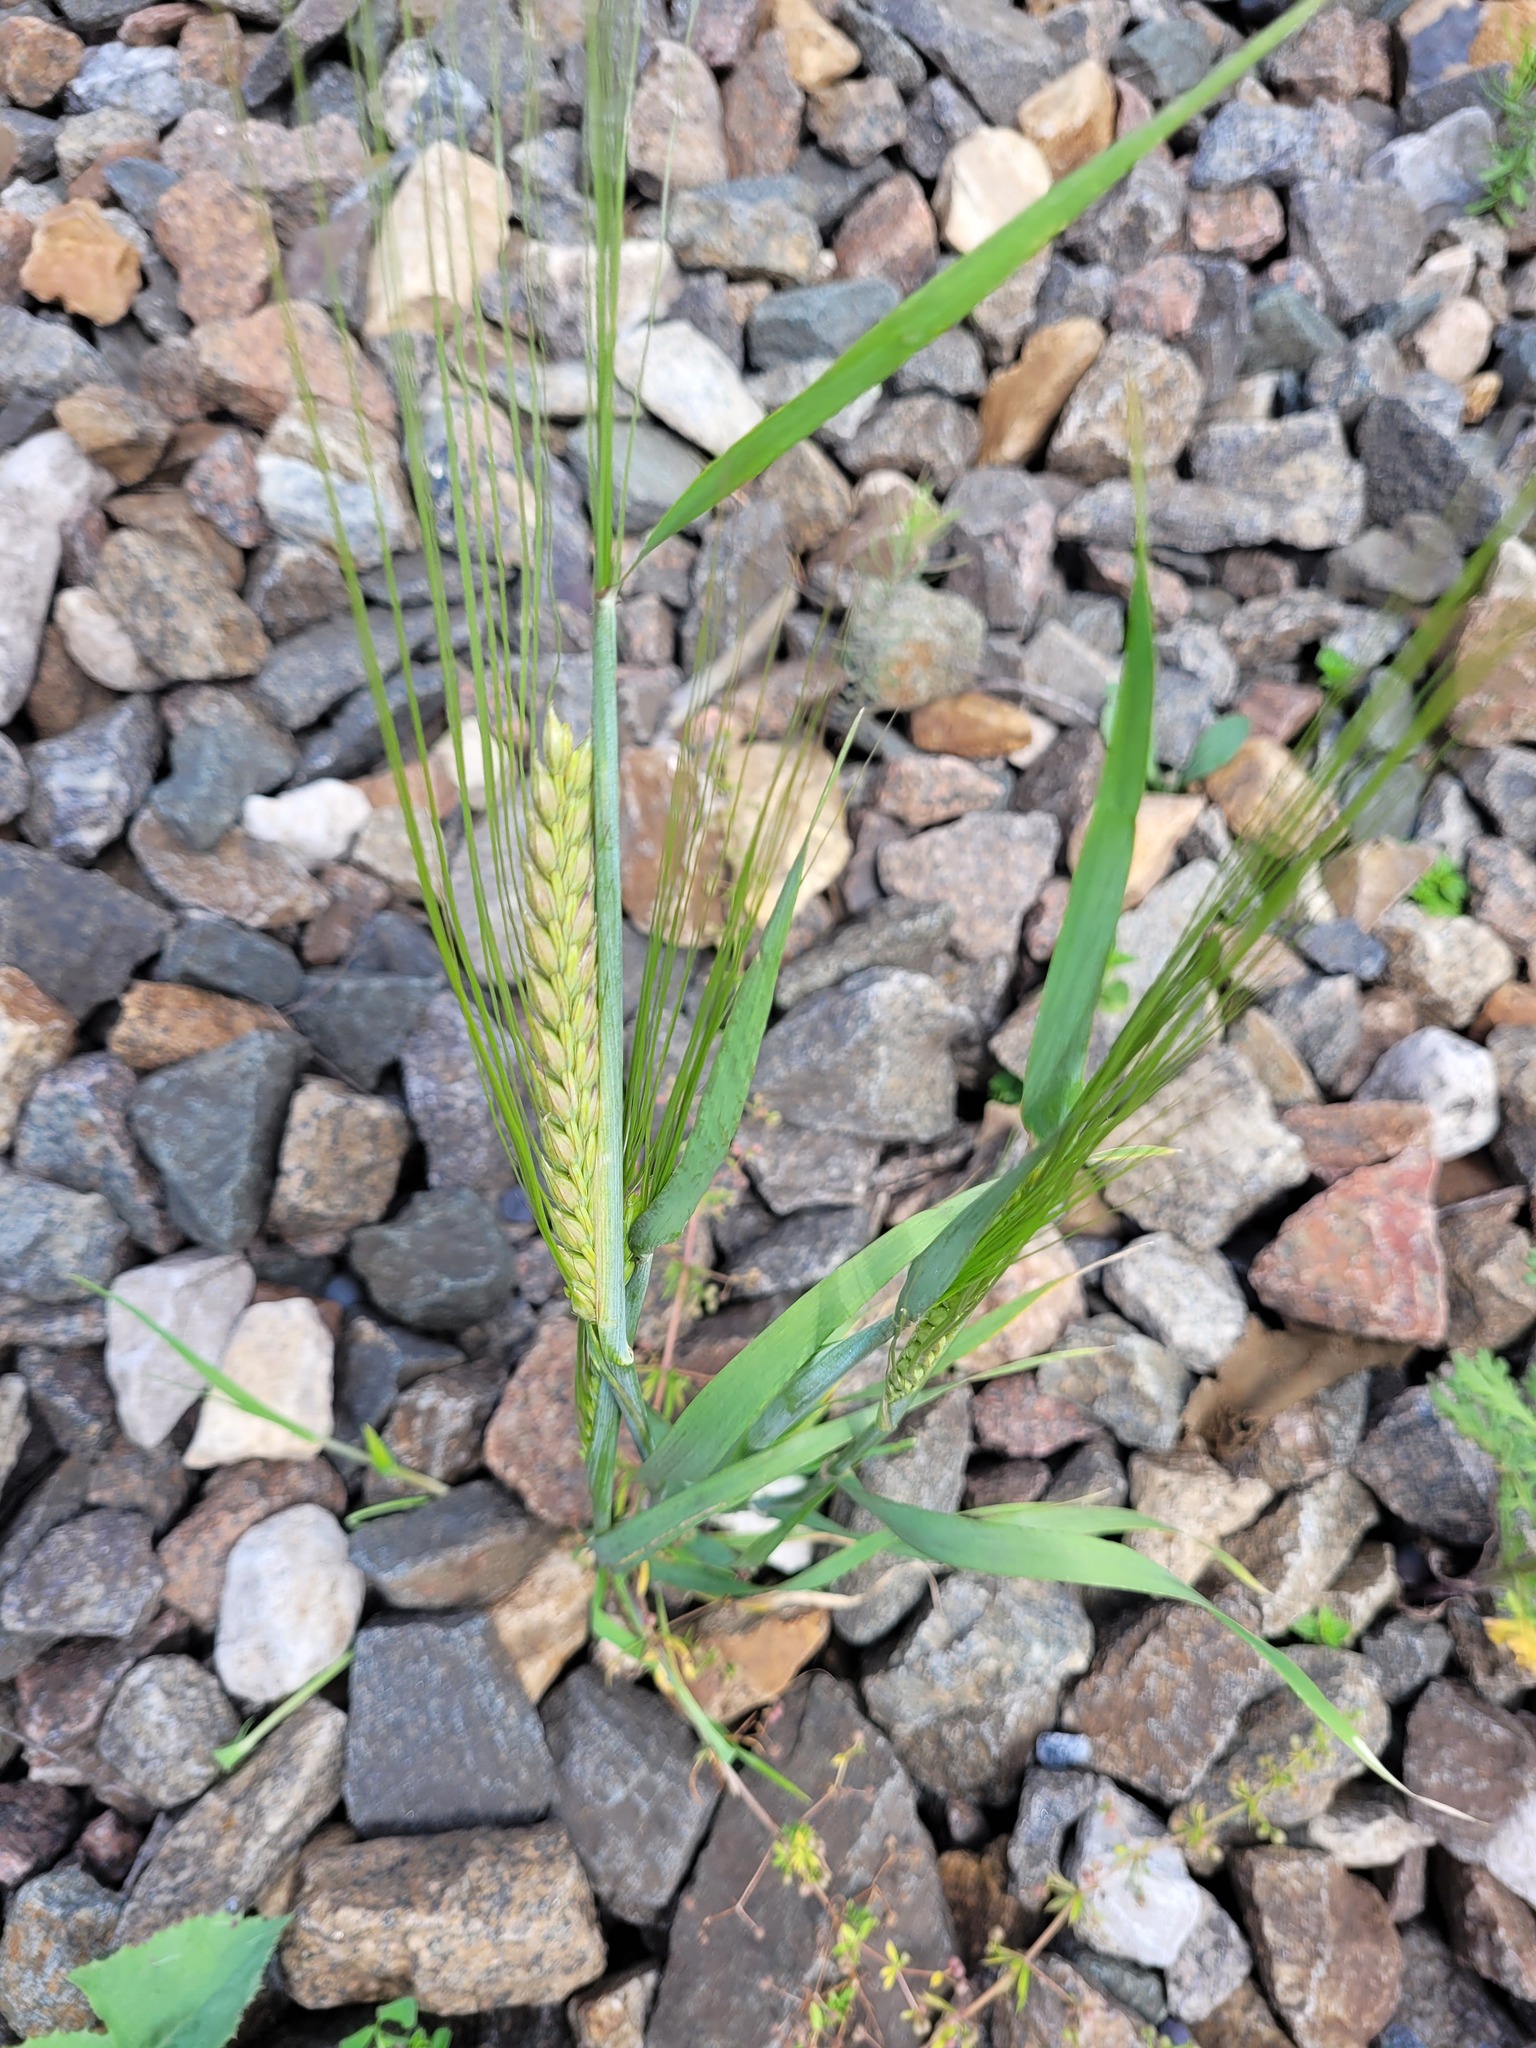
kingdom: Plantae
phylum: Tracheophyta
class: Liliopsida
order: Poales
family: Poaceae
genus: Hordeum
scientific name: Hordeum vulgare
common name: Common barley
